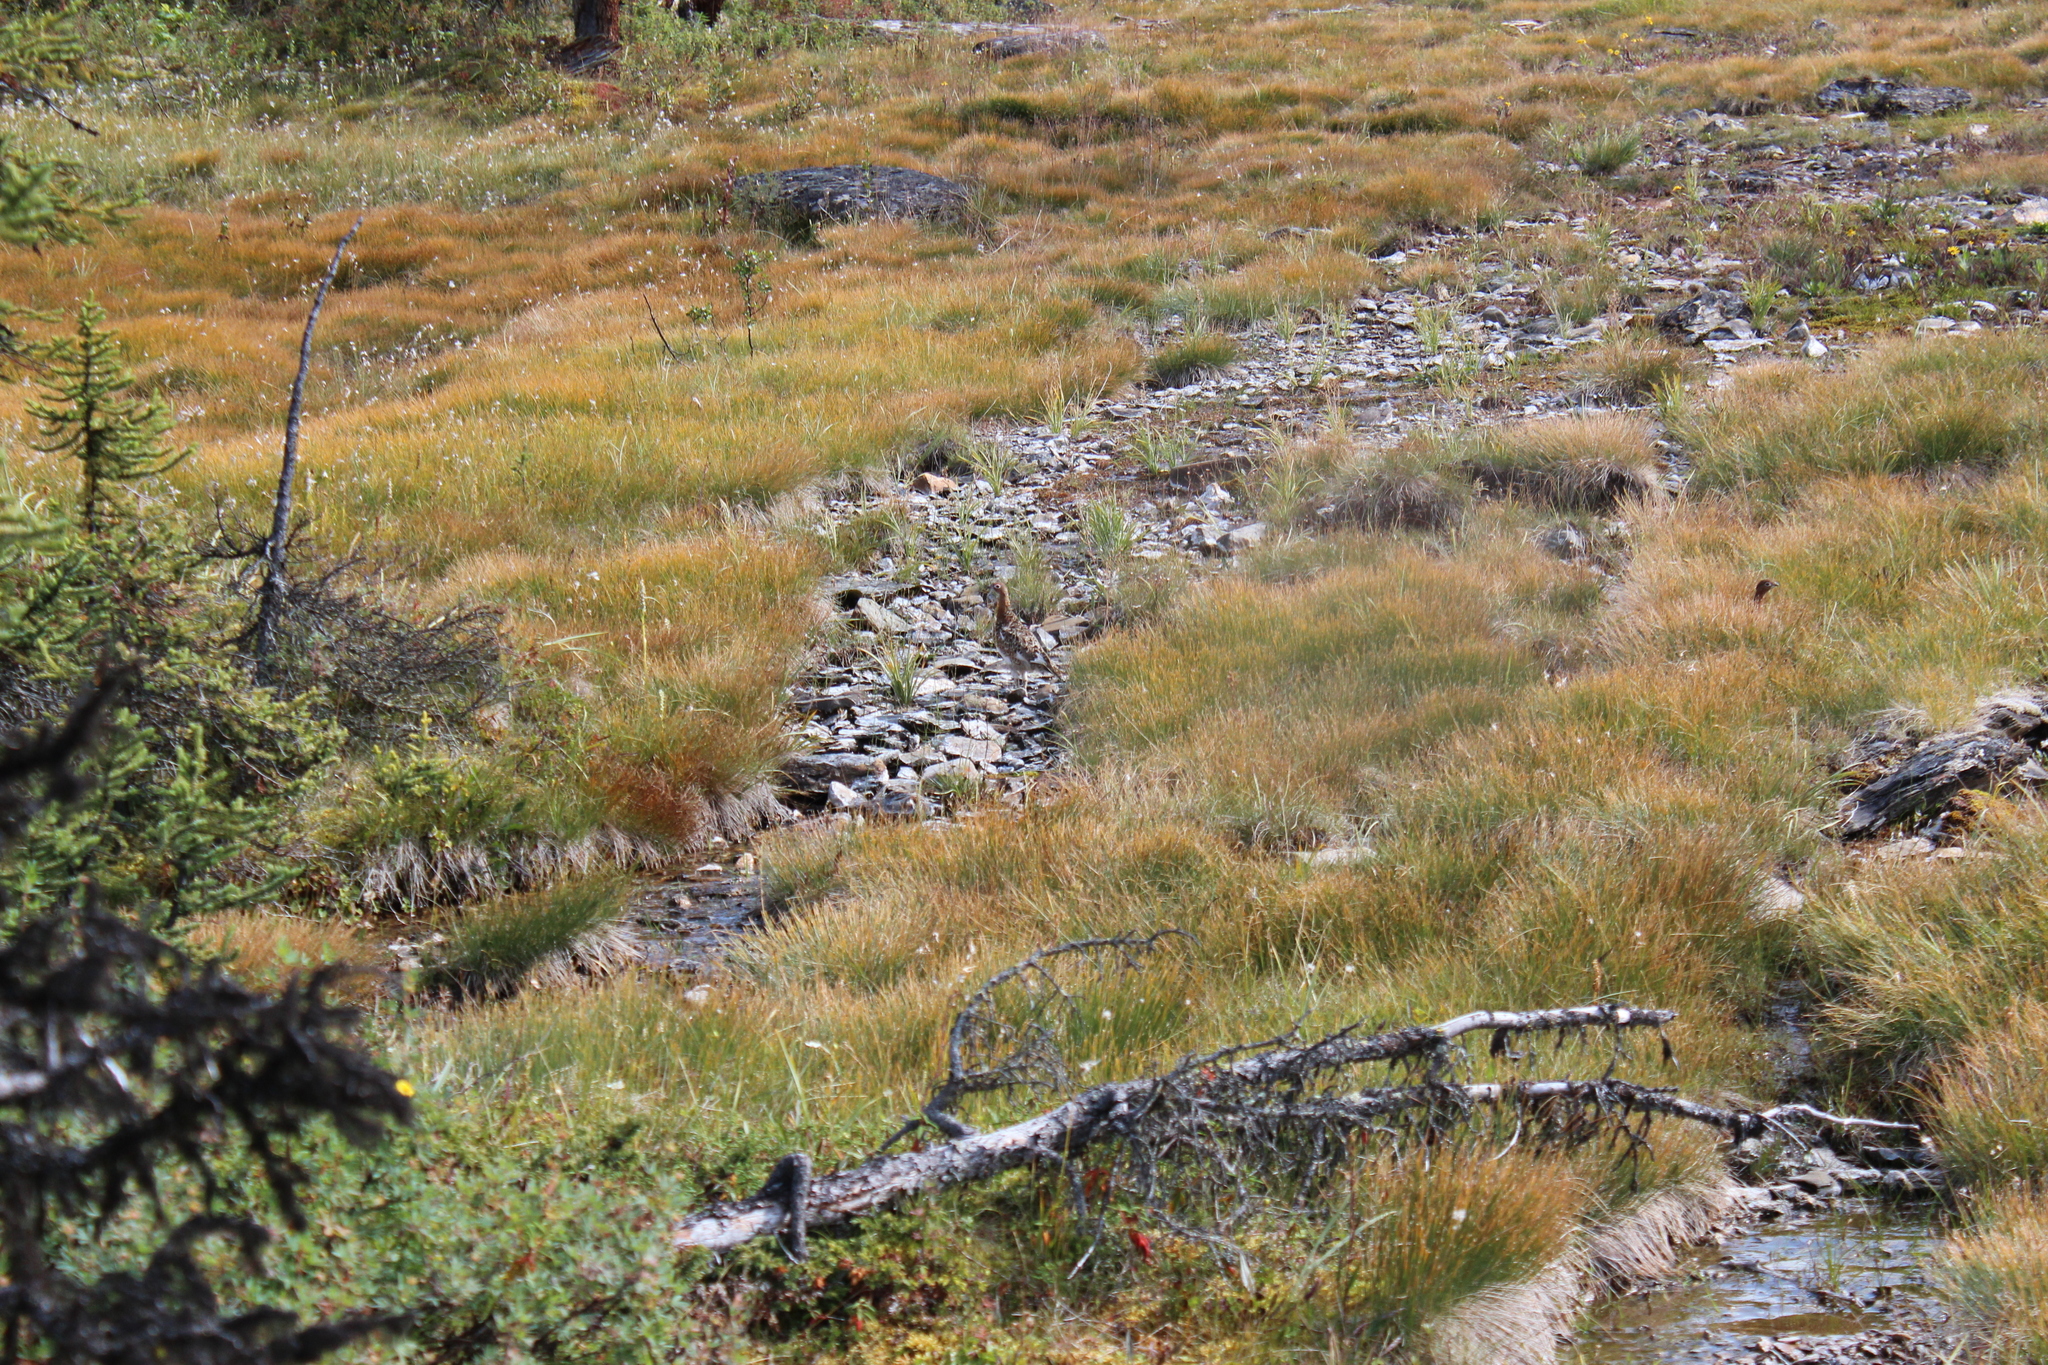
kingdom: Animalia
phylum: Chordata
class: Aves
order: Galliformes
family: Phasianidae
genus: Lagopus
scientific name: Lagopus lagopus
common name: Willow ptarmigan
